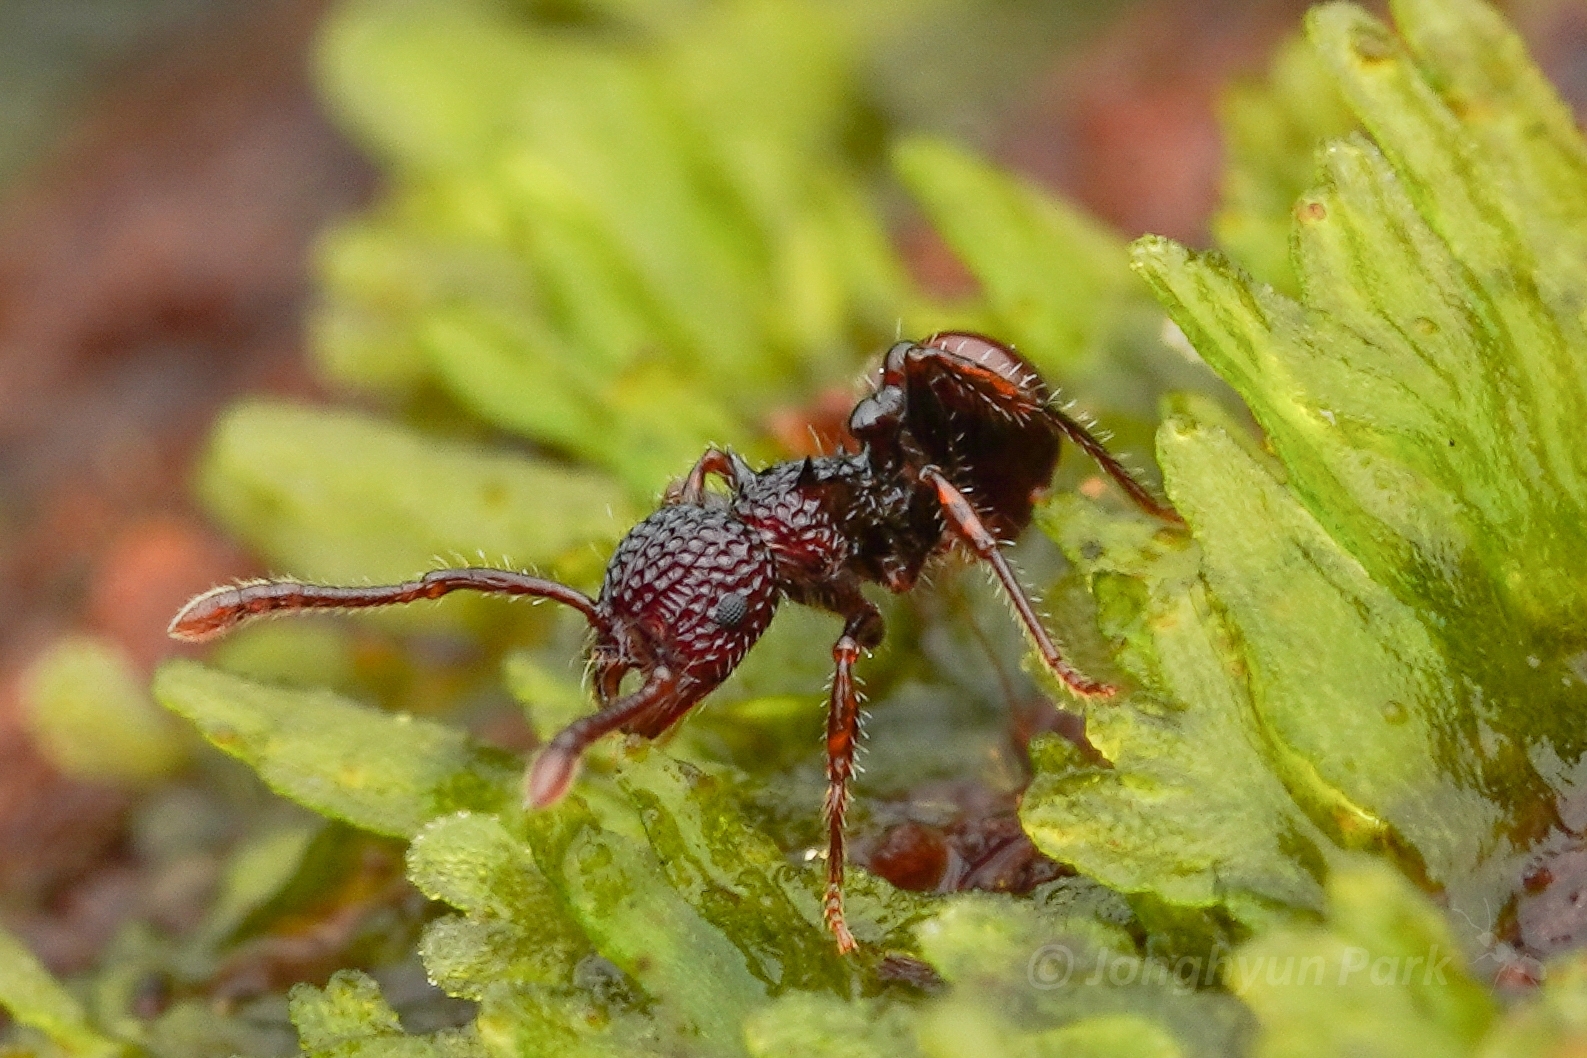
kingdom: Animalia
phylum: Arthropoda
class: Insecta
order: Hymenoptera
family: Formicidae
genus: Pristomyrmex
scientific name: Pristomyrmex costatus
